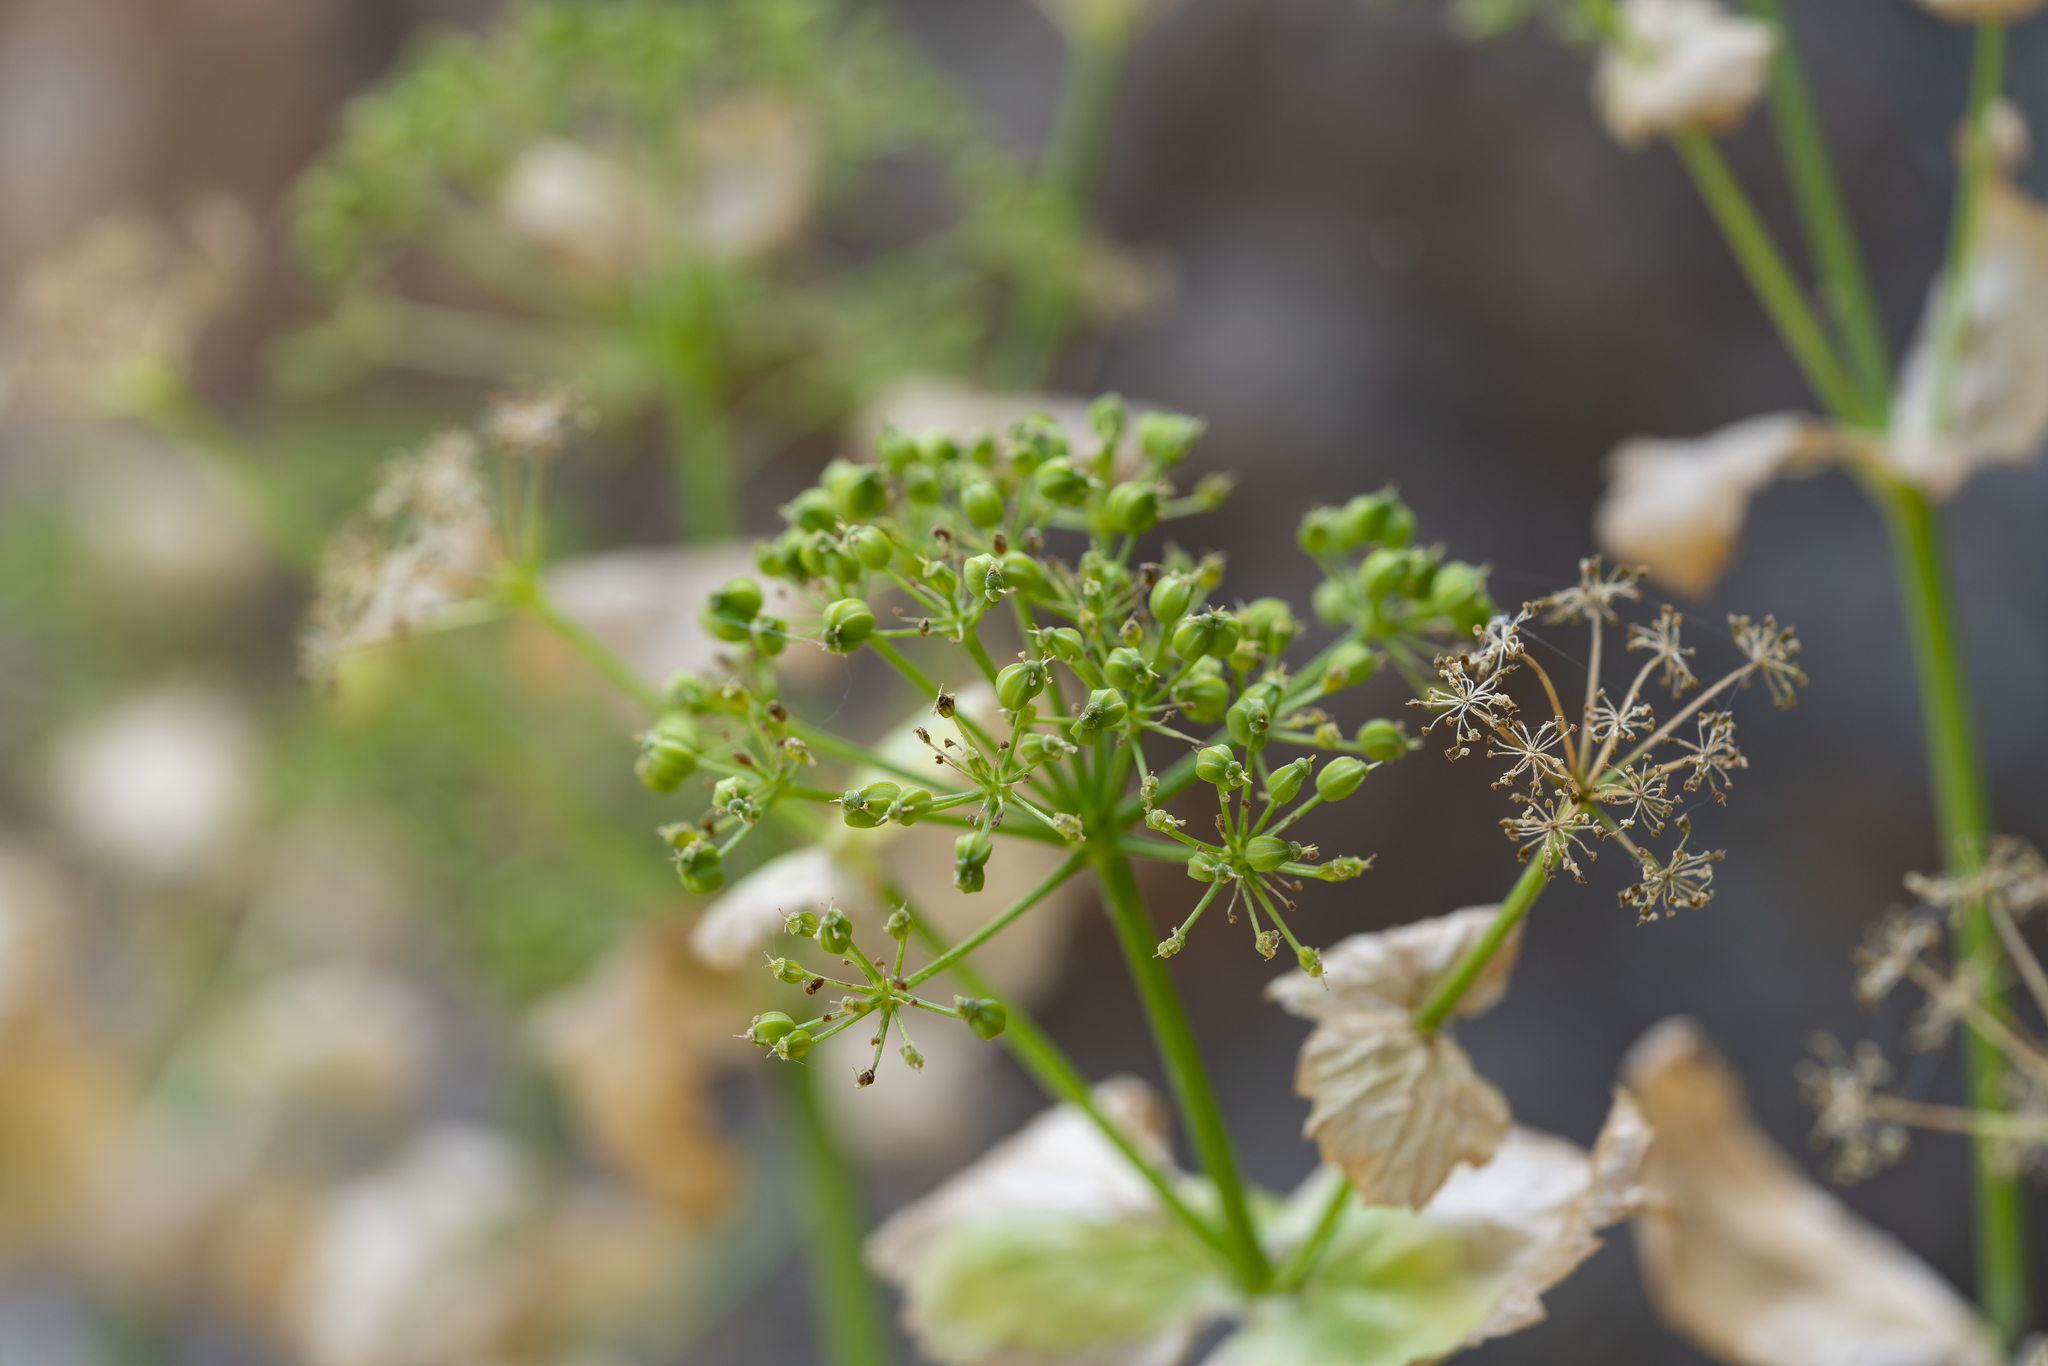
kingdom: Plantae
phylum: Tracheophyta
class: Magnoliopsida
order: Apiales
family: Apiaceae
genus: Smyrnium
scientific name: Smyrnium creticum
